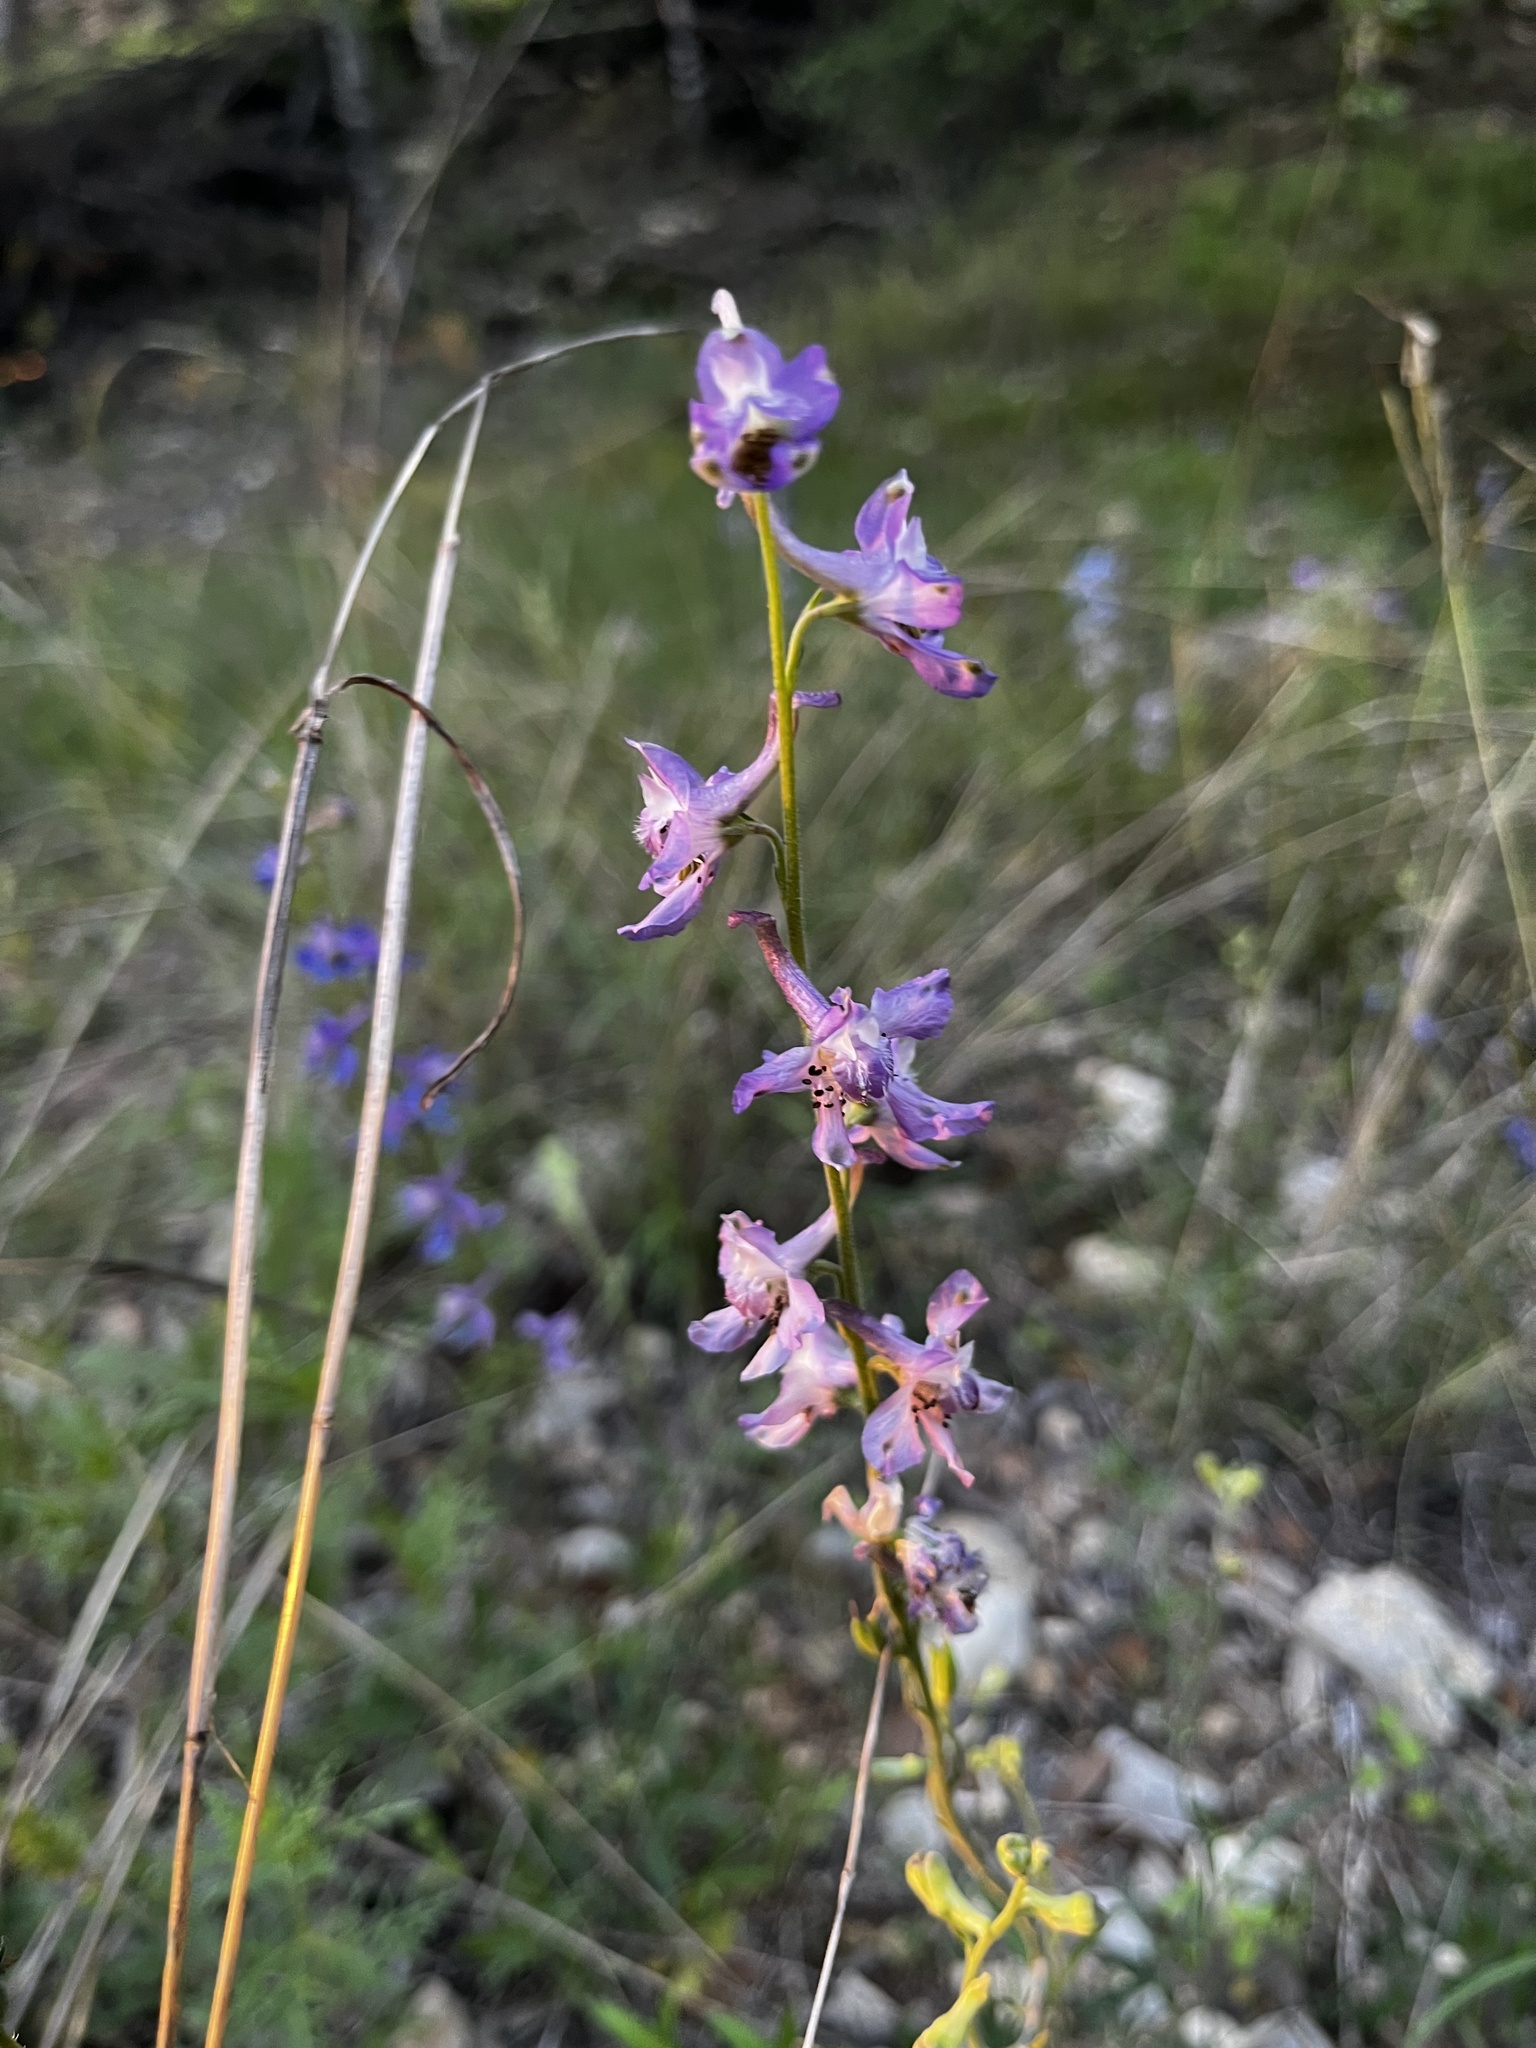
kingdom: Plantae
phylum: Tracheophyta
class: Magnoliopsida
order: Ranunculales
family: Ranunculaceae
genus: Delphinium
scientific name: Delphinium carolinianum
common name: Carolina larkspur
